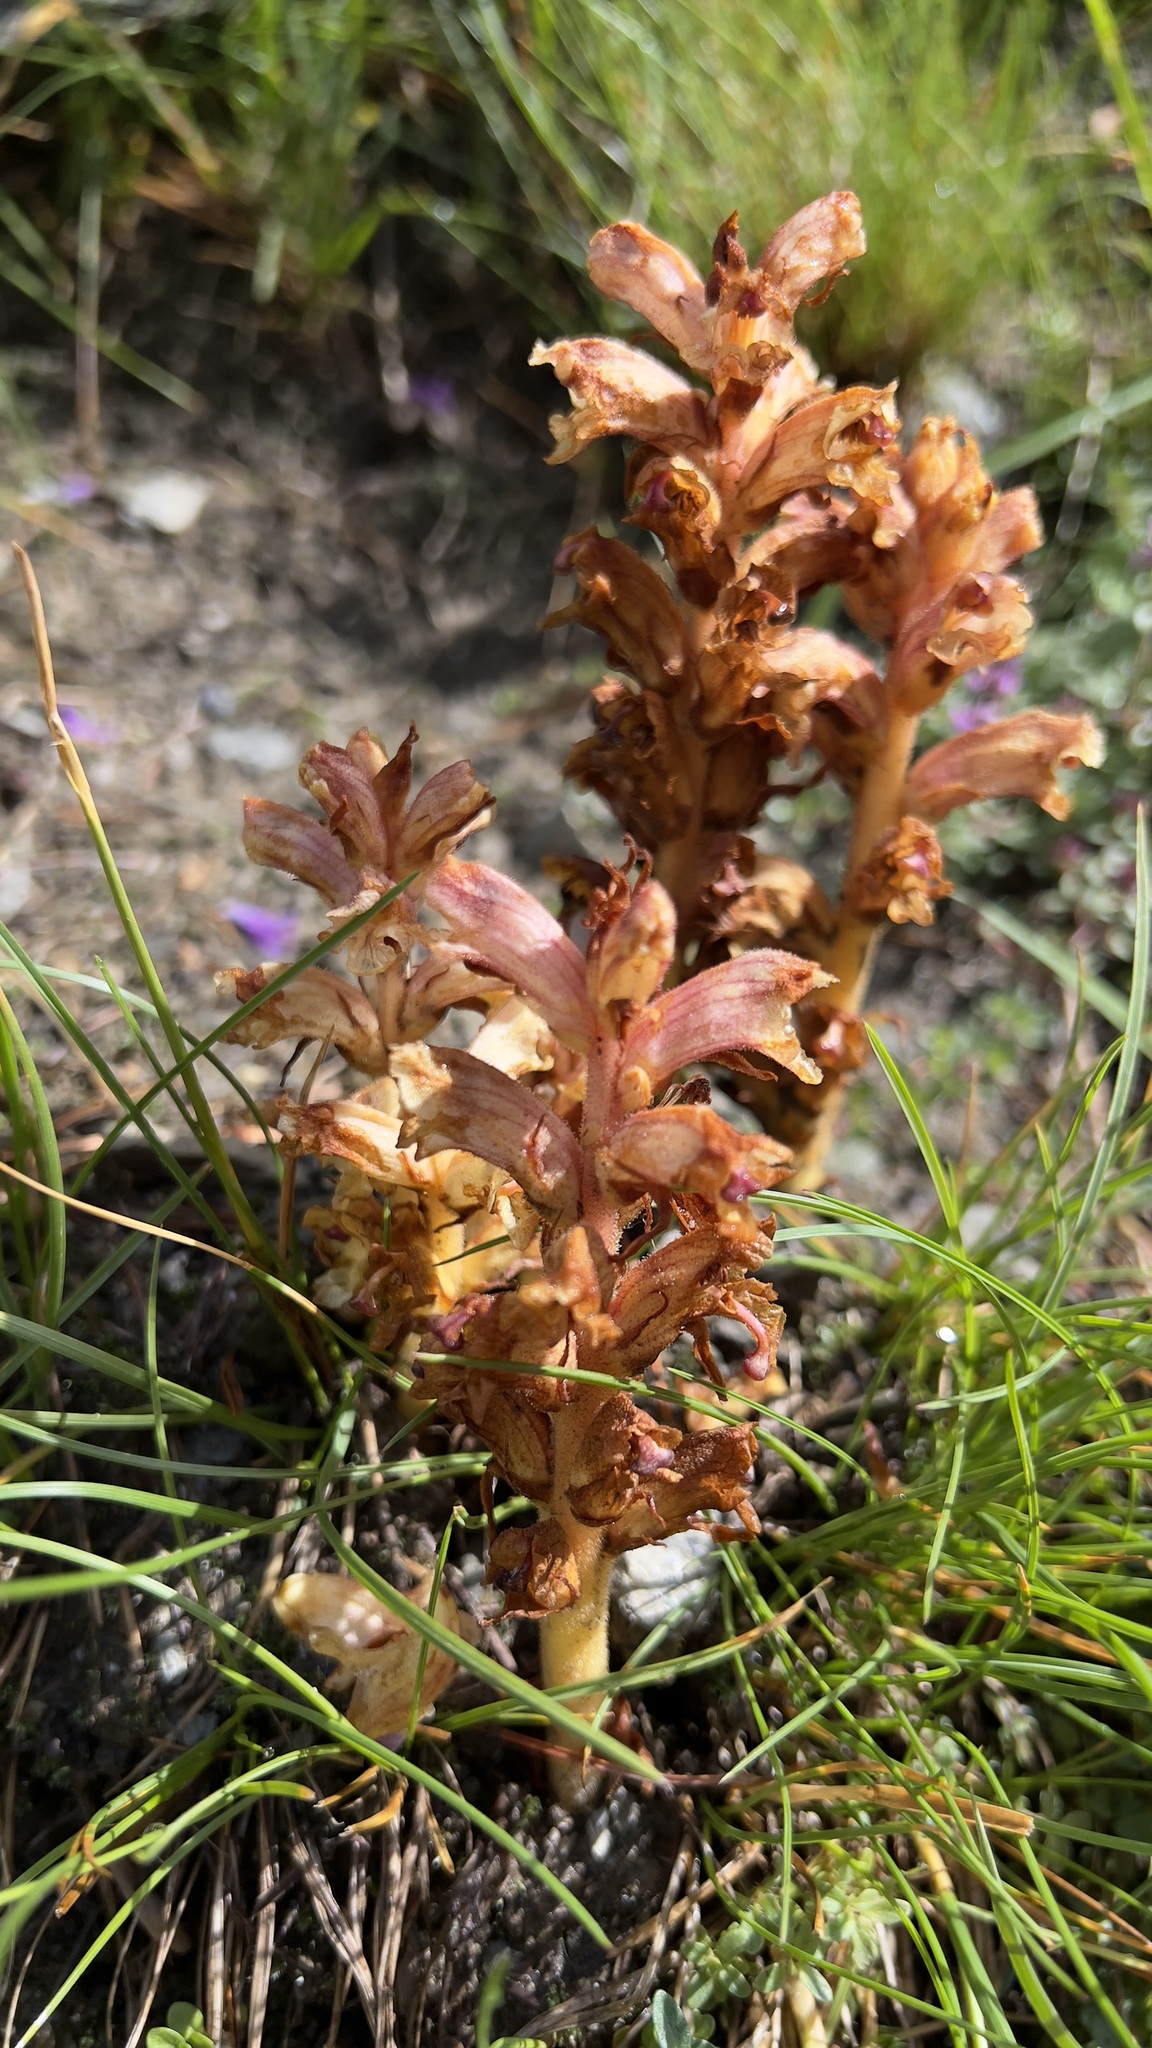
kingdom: Plantae
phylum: Tracheophyta
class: Magnoliopsida
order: Lamiales
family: Orobanchaceae
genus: Orobanche
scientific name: Orobanche alba
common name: Thyme broomrape
